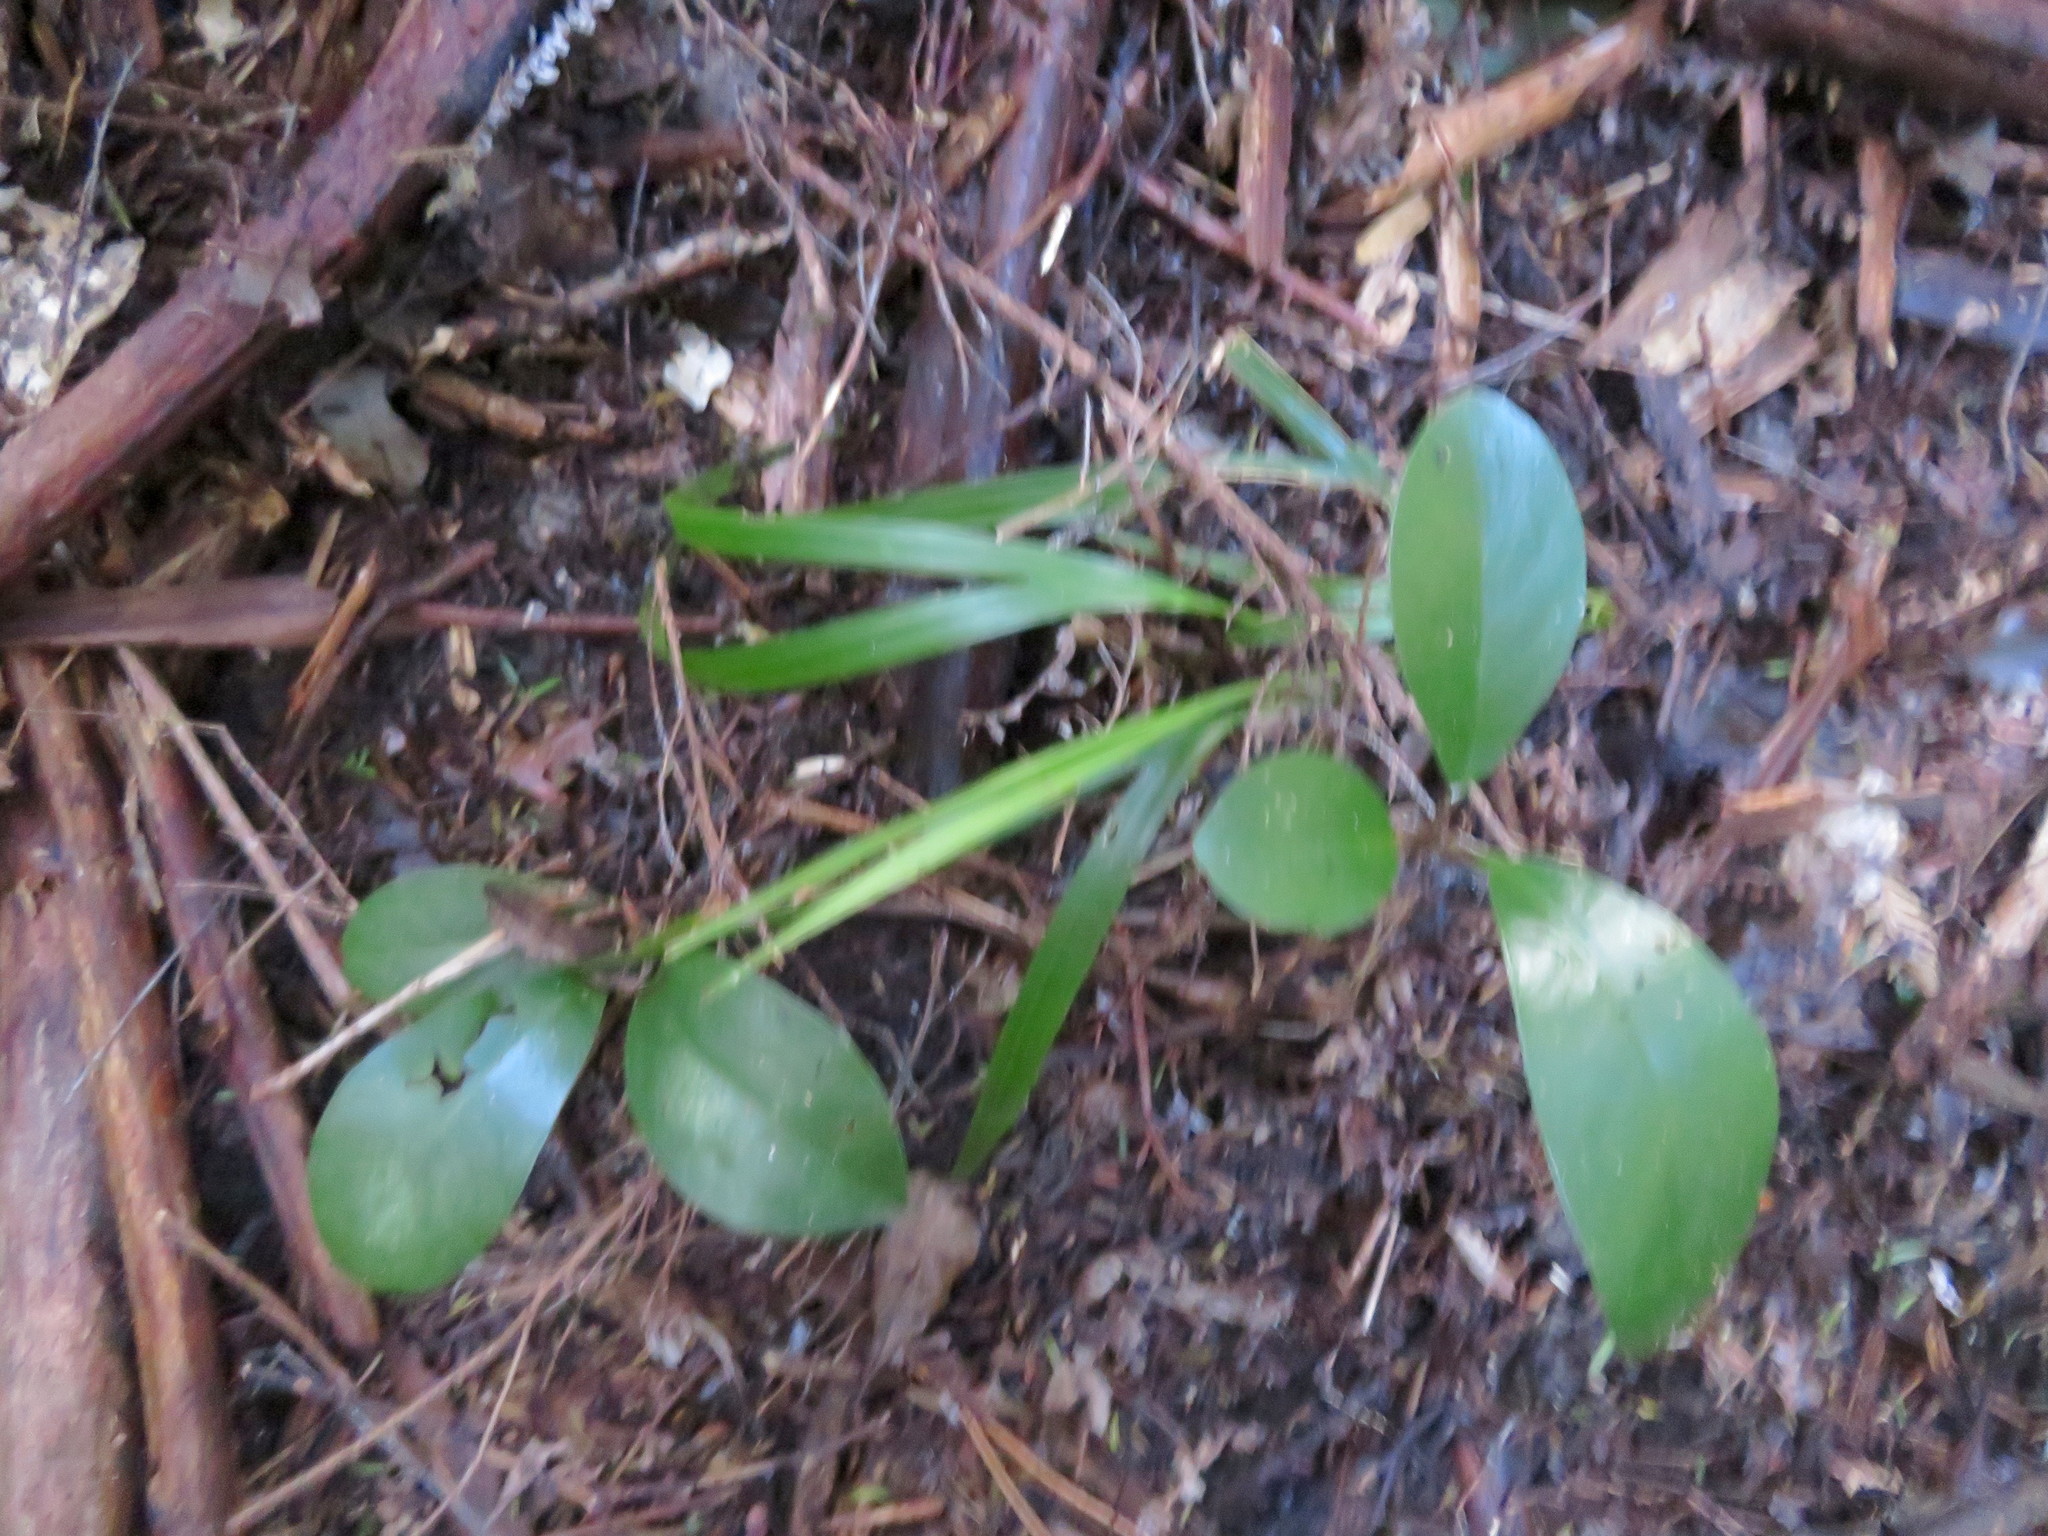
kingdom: Plantae
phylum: Tracheophyta
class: Magnoliopsida
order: Cucurbitales
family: Corynocarpaceae
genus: Corynocarpus
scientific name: Corynocarpus laevigatus
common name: New zealand laurel
